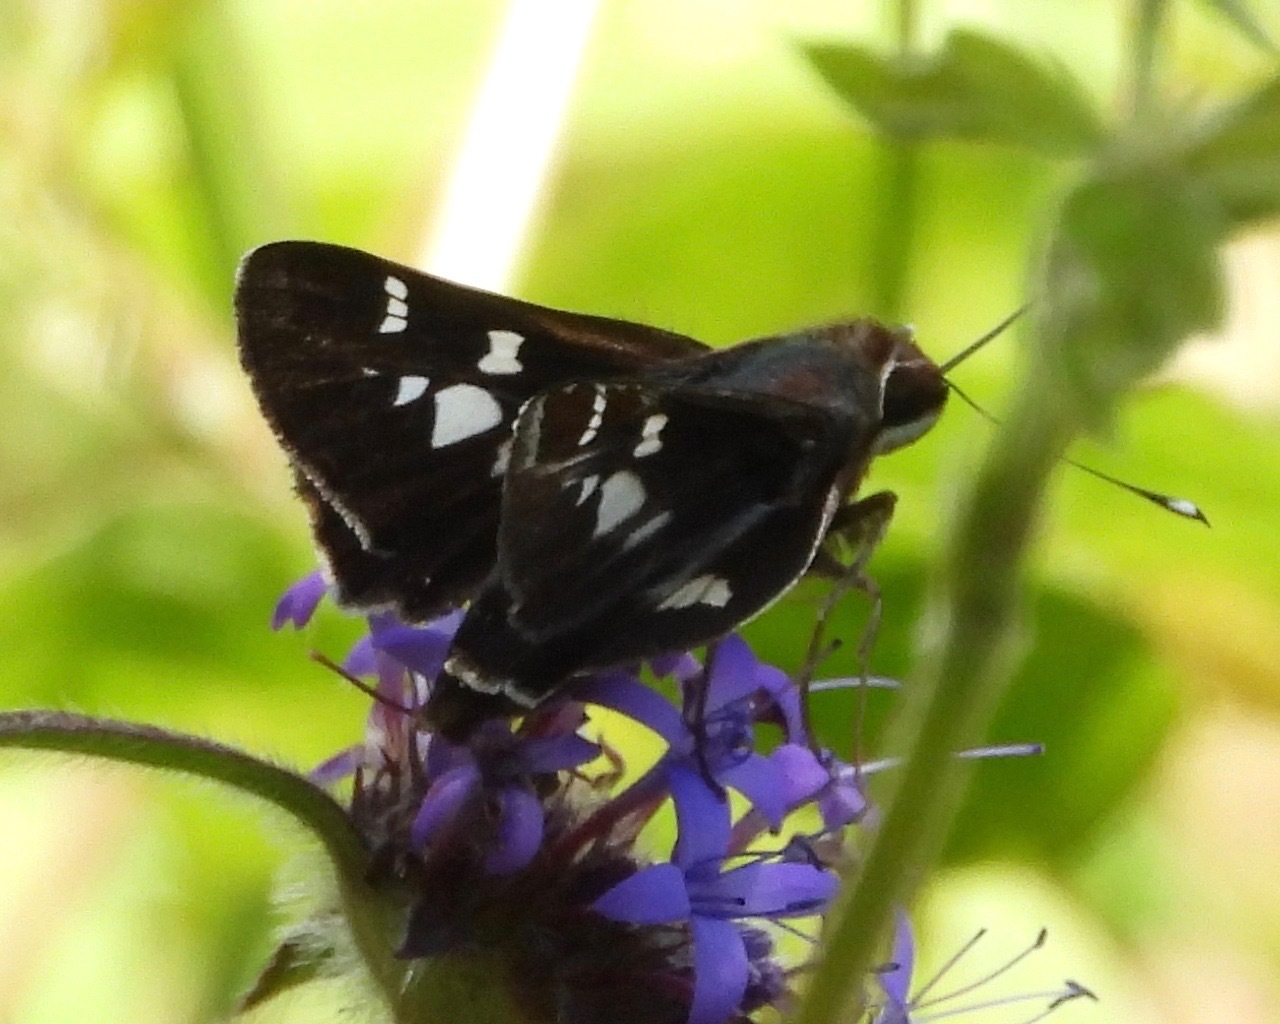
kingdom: Animalia
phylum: Arthropoda
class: Insecta
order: Lepidoptera
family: Hesperiidae
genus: Thespieus
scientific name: Thespieus macareus
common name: Chestnut-marked skipper
